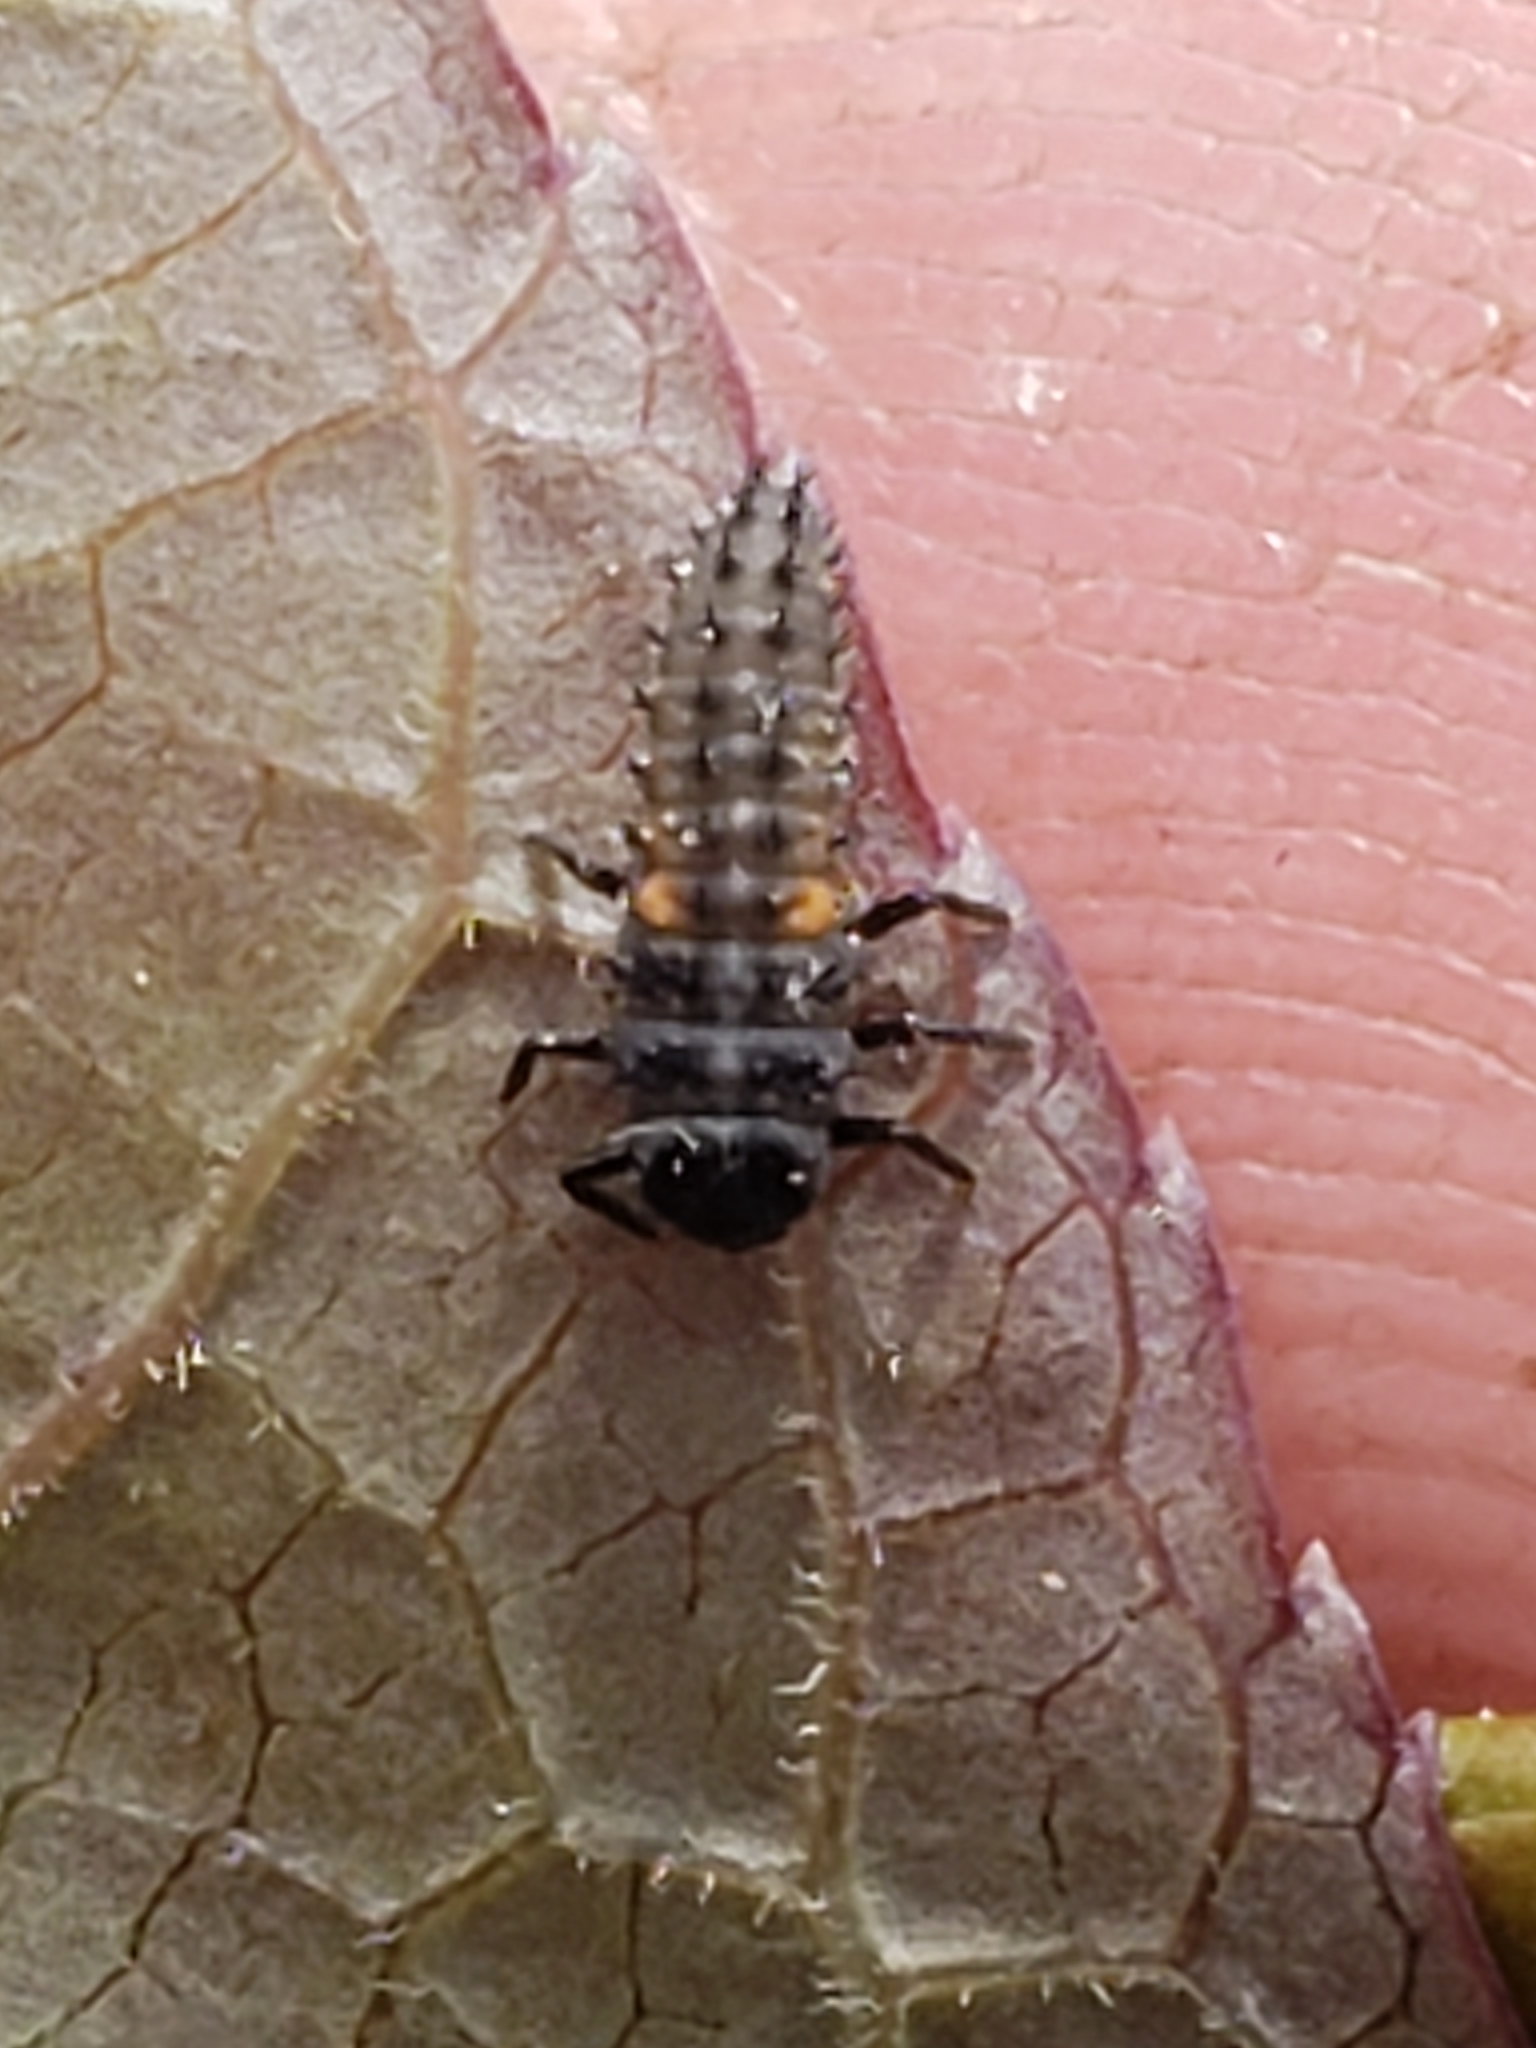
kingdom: Animalia
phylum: Arthropoda
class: Insecta
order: Coleoptera
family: Coccinellidae
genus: Harmonia
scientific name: Harmonia axyridis
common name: Harlequin ladybird
